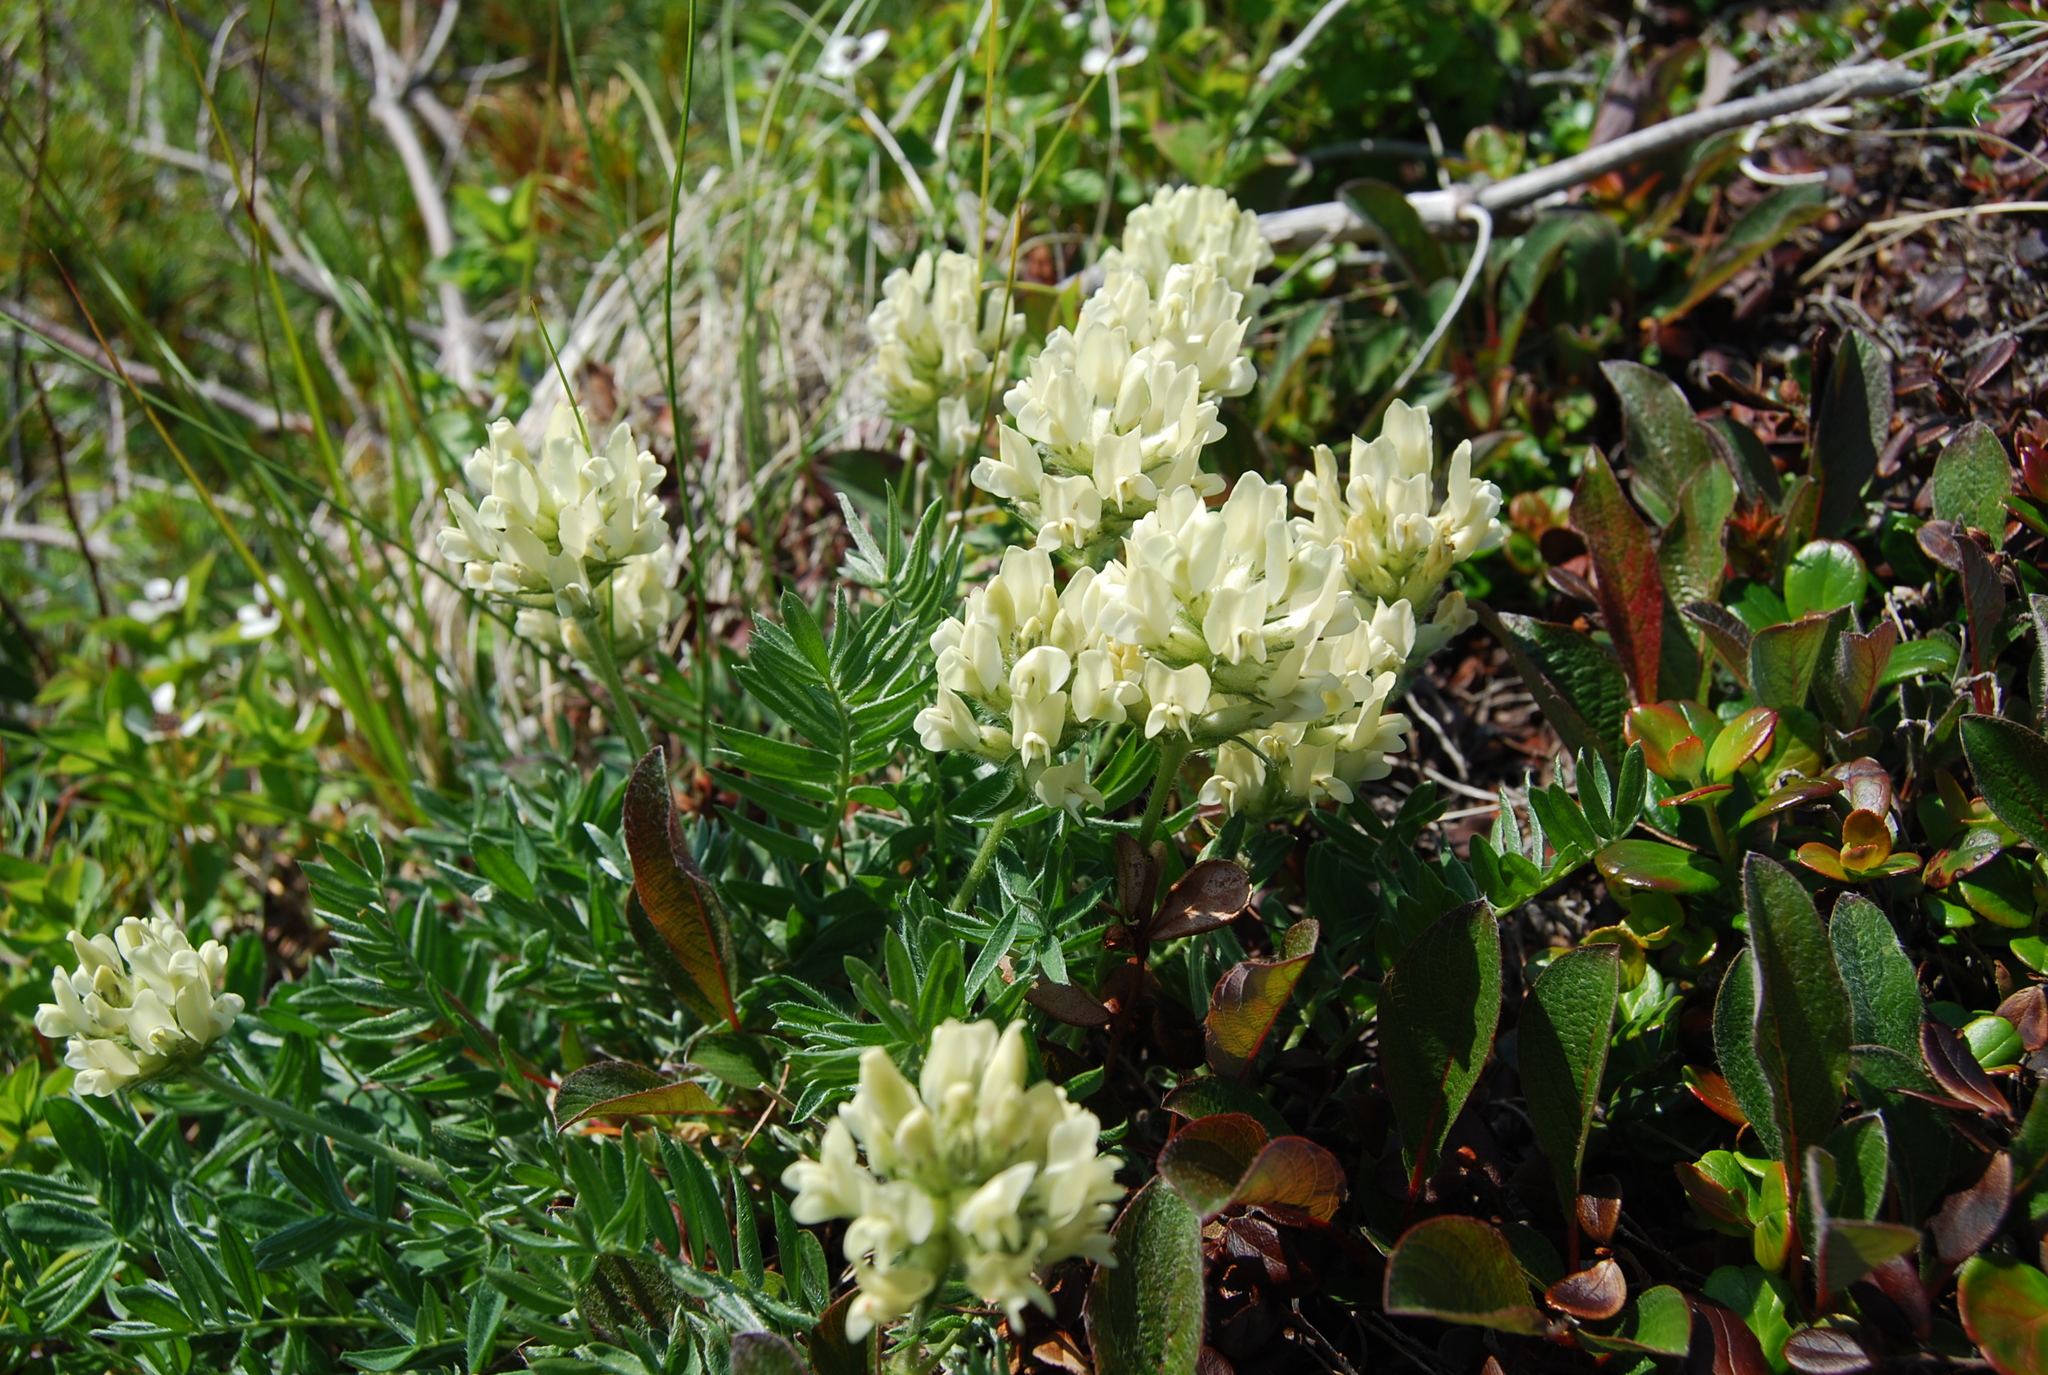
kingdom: Plantae
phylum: Tracheophyta
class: Magnoliopsida
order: Fabales
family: Fabaceae
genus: Oxytropis
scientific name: Oxytropis evenorum
